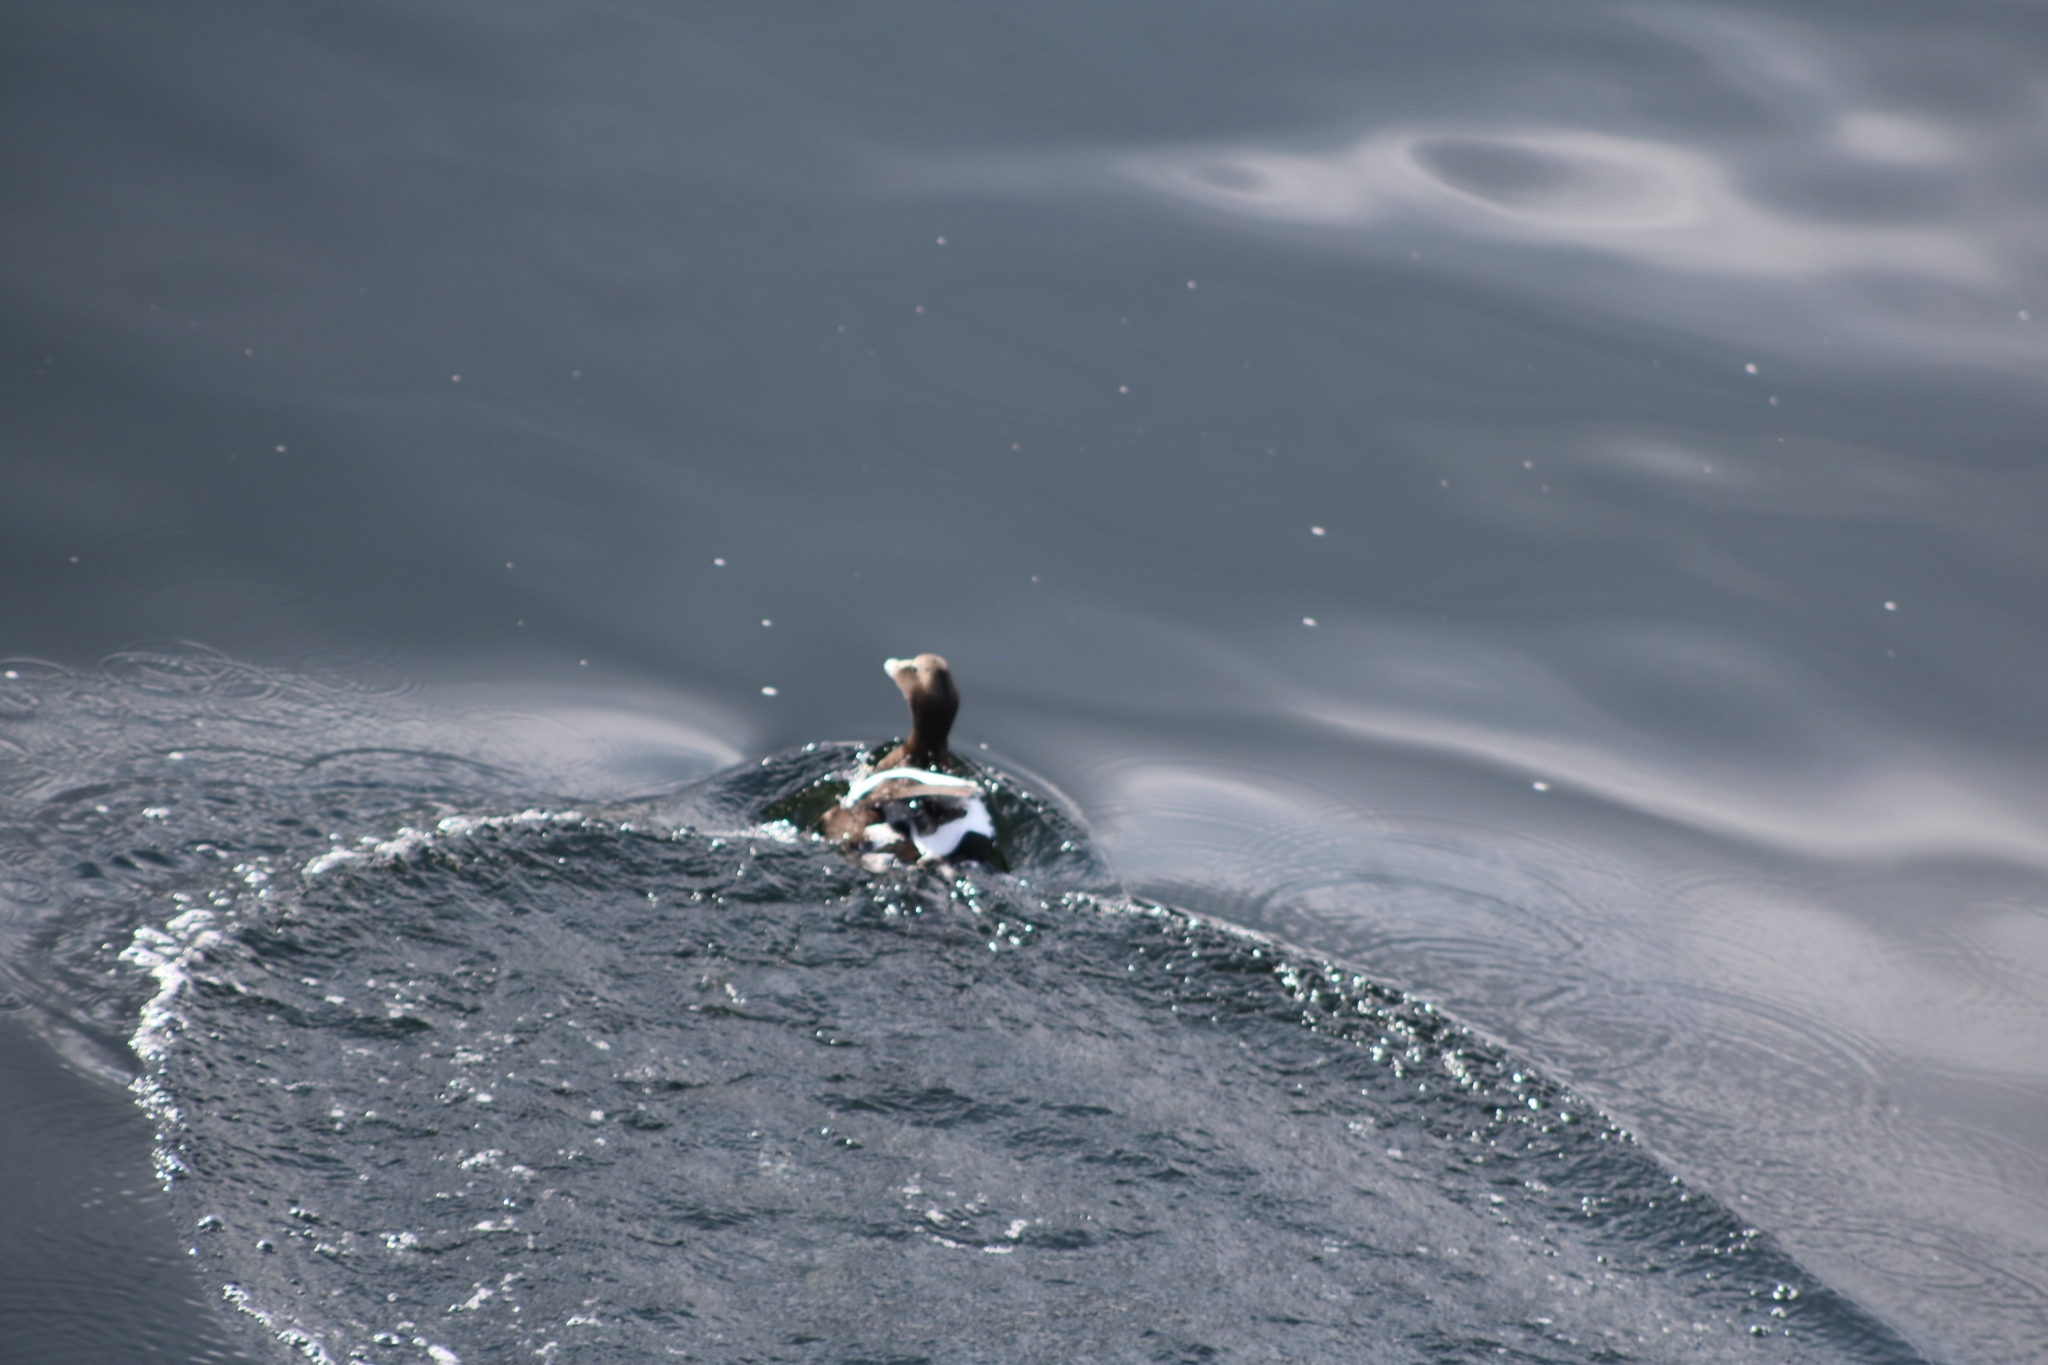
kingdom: Animalia
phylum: Chordata
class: Aves
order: Anseriformes
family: Anatidae
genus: Somateria
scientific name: Somateria mollissima
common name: Common eider
